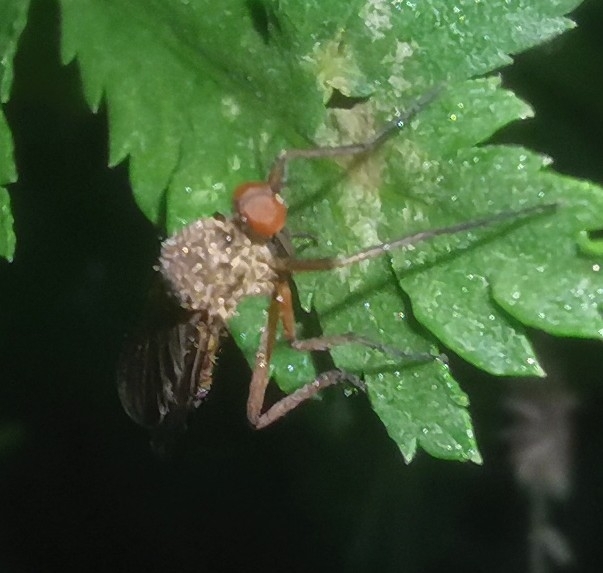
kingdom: Animalia
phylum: Arthropoda
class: Insecta
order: Diptera
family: Empididae
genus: Empis
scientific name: Empis livida
